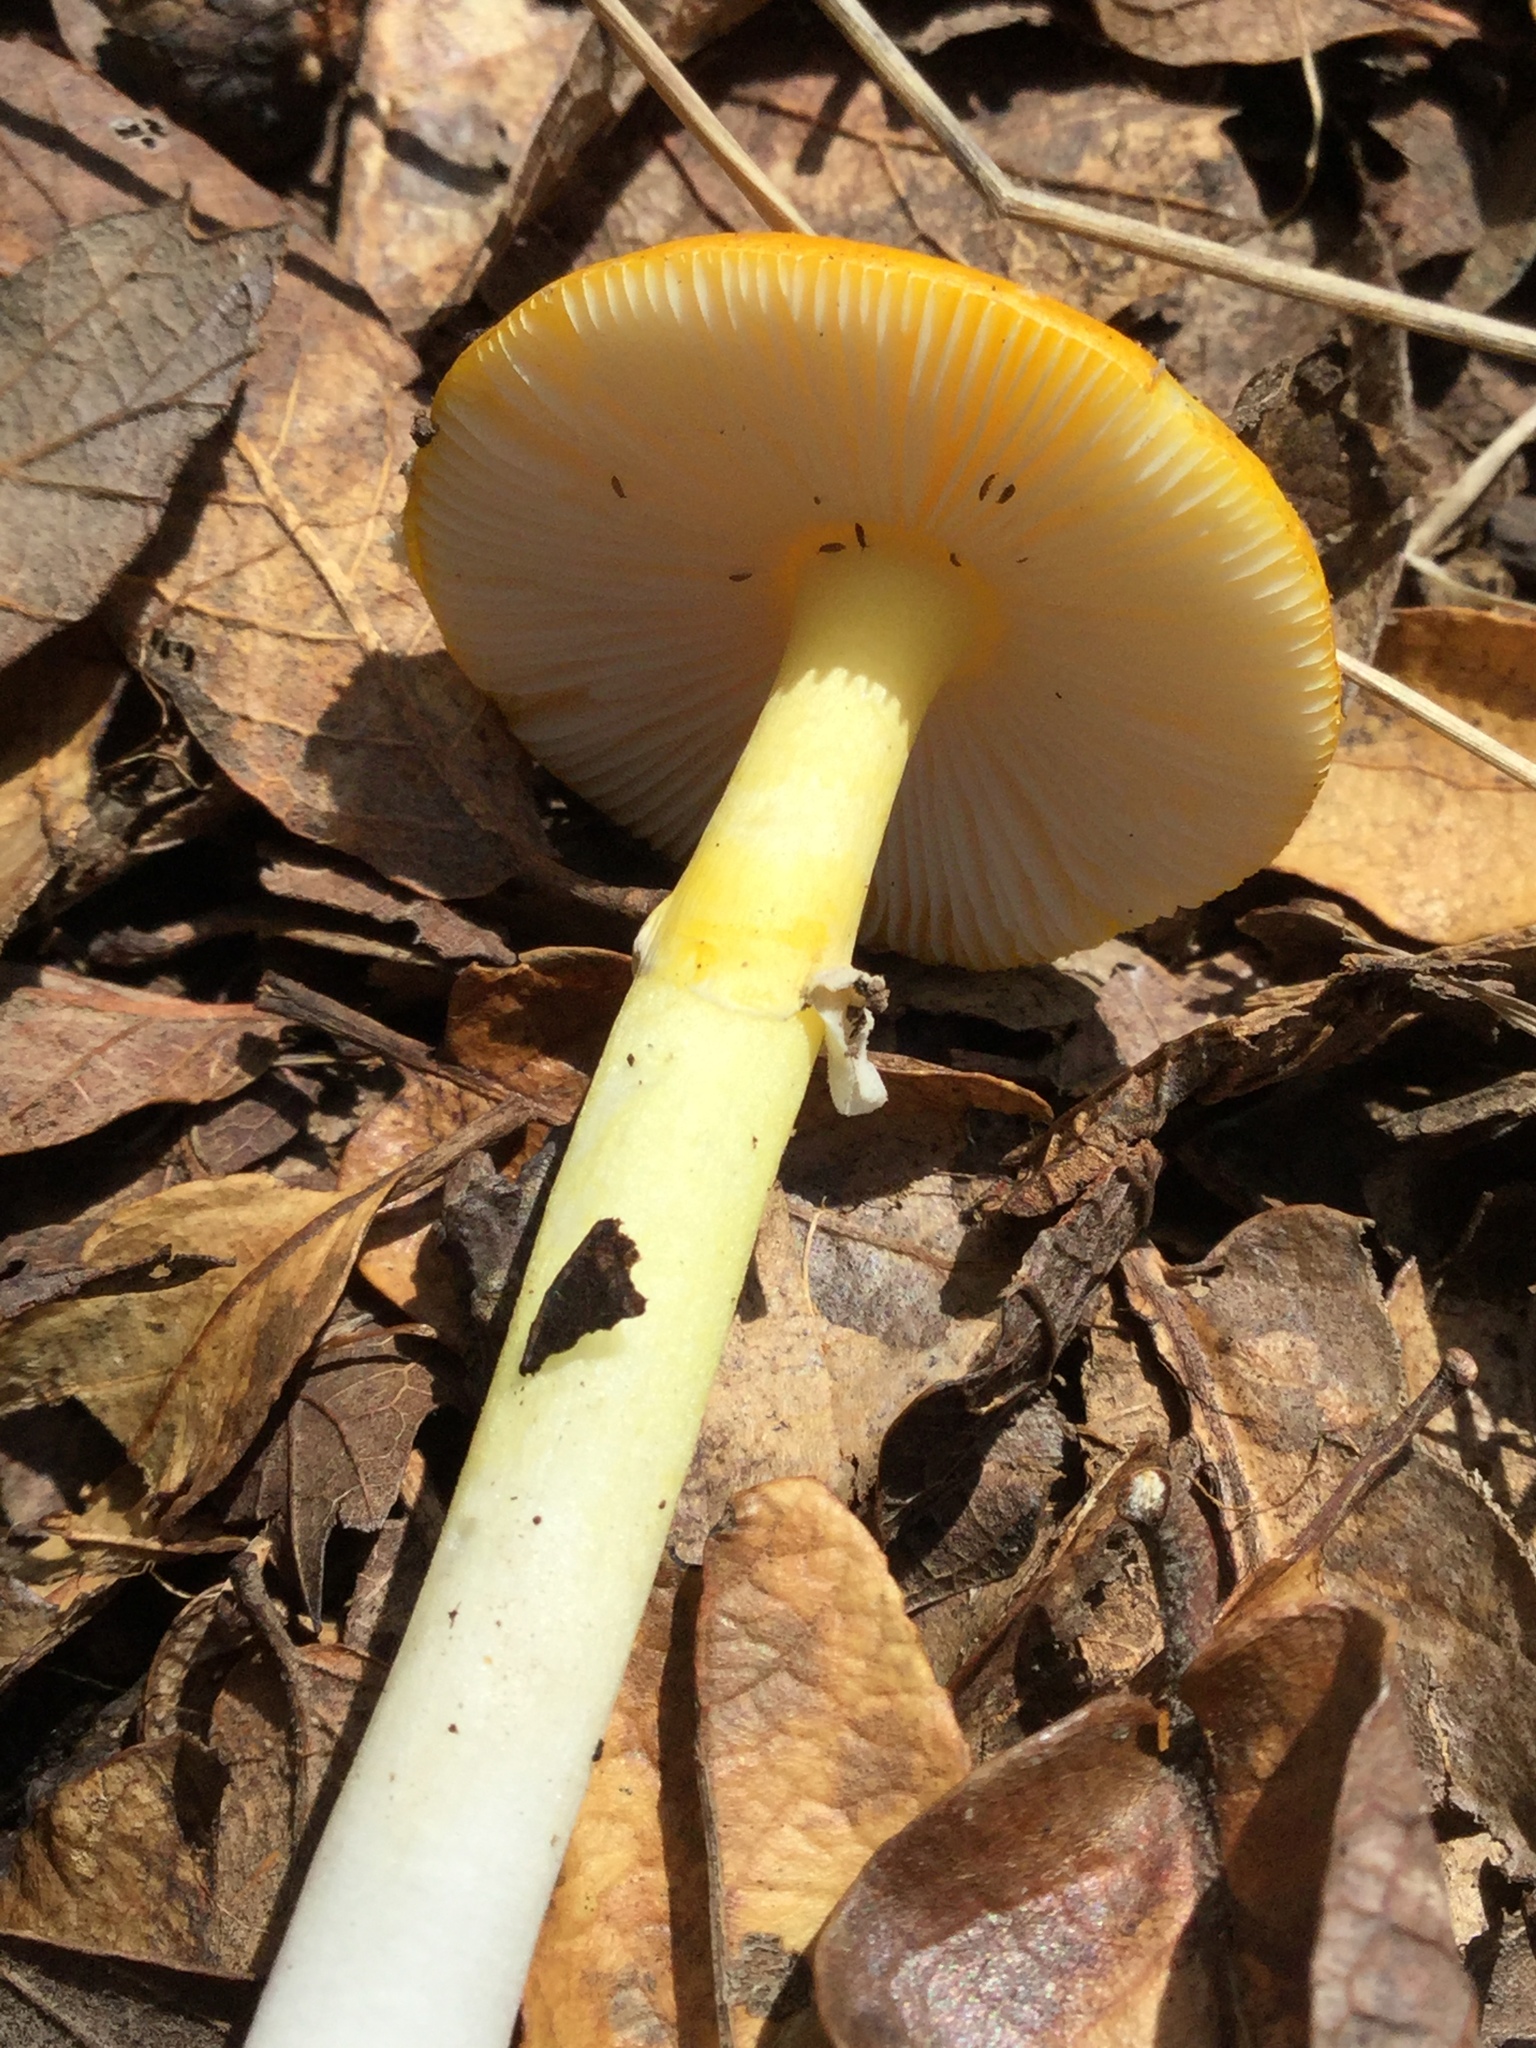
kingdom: Fungi
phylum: Basidiomycota
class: Agaricomycetes
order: Agaricales
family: Amanitaceae
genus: Amanita
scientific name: Amanita flavoconia
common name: Yellow patches
